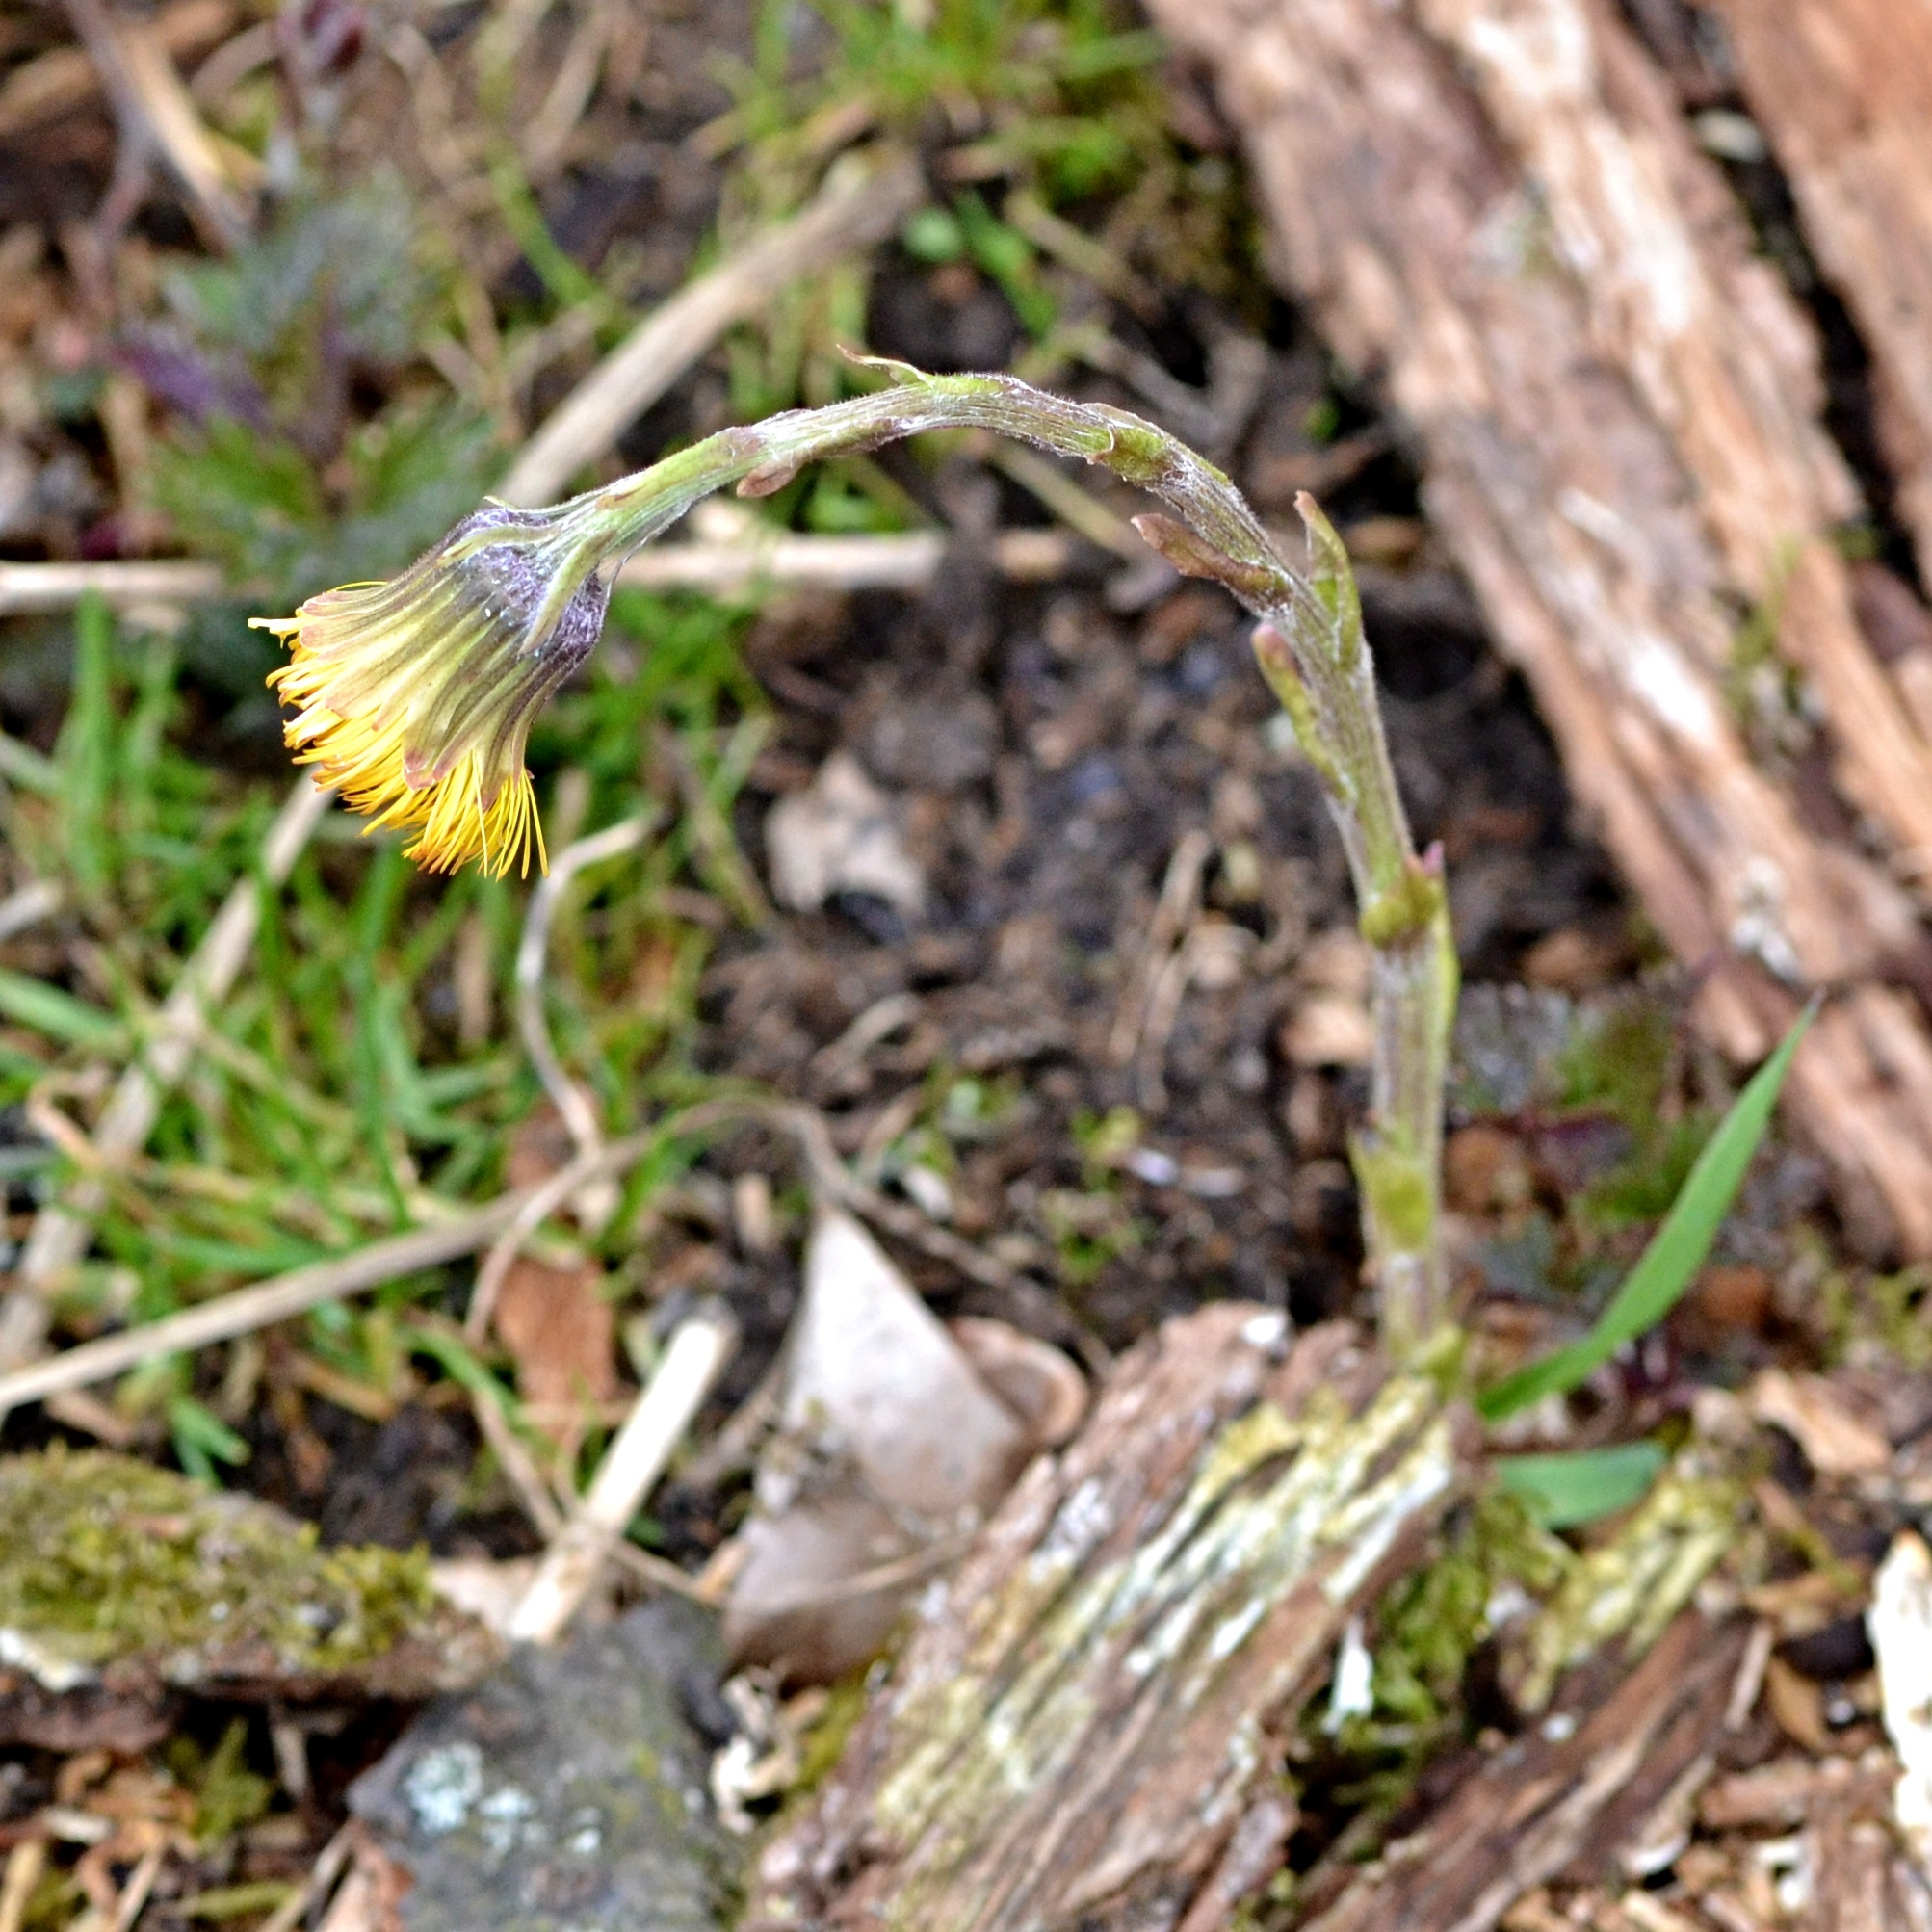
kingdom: Plantae
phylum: Tracheophyta
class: Magnoliopsida
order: Asterales
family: Asteraceae
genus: Tussilago
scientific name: Tussilago farfara
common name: Coltsfoot
